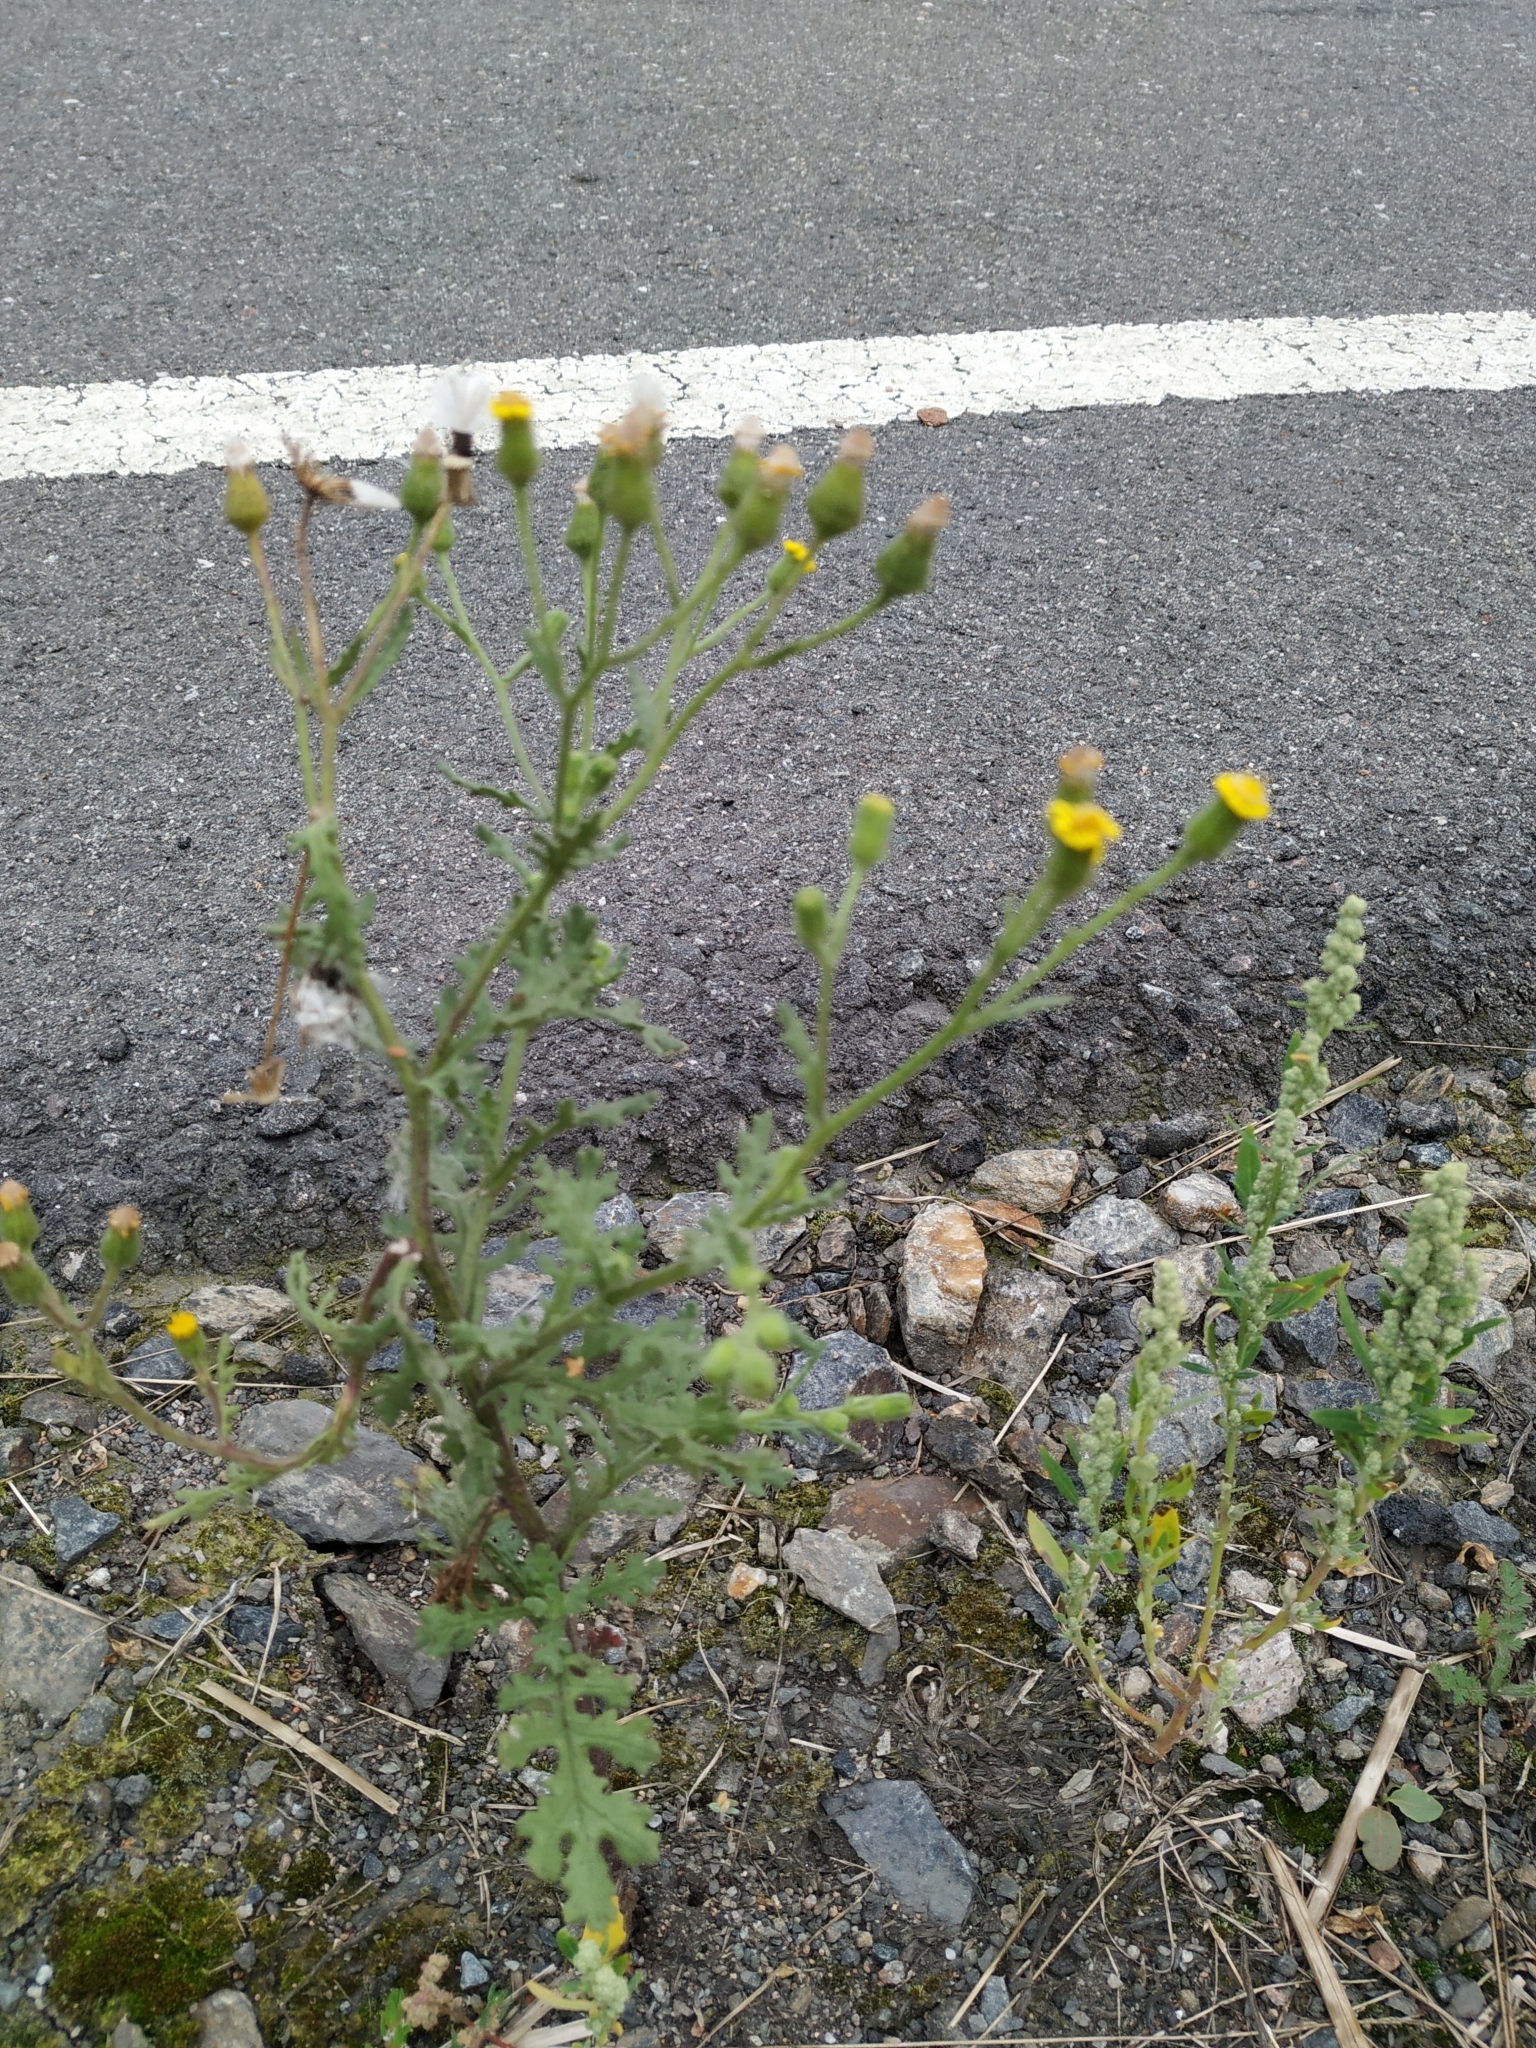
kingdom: Plantae
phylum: Tracheophyta
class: Magnoliopsida
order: Asterales
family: Asteraceae
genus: Senecio
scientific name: Senecio viscosus
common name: Sticky groundsel
